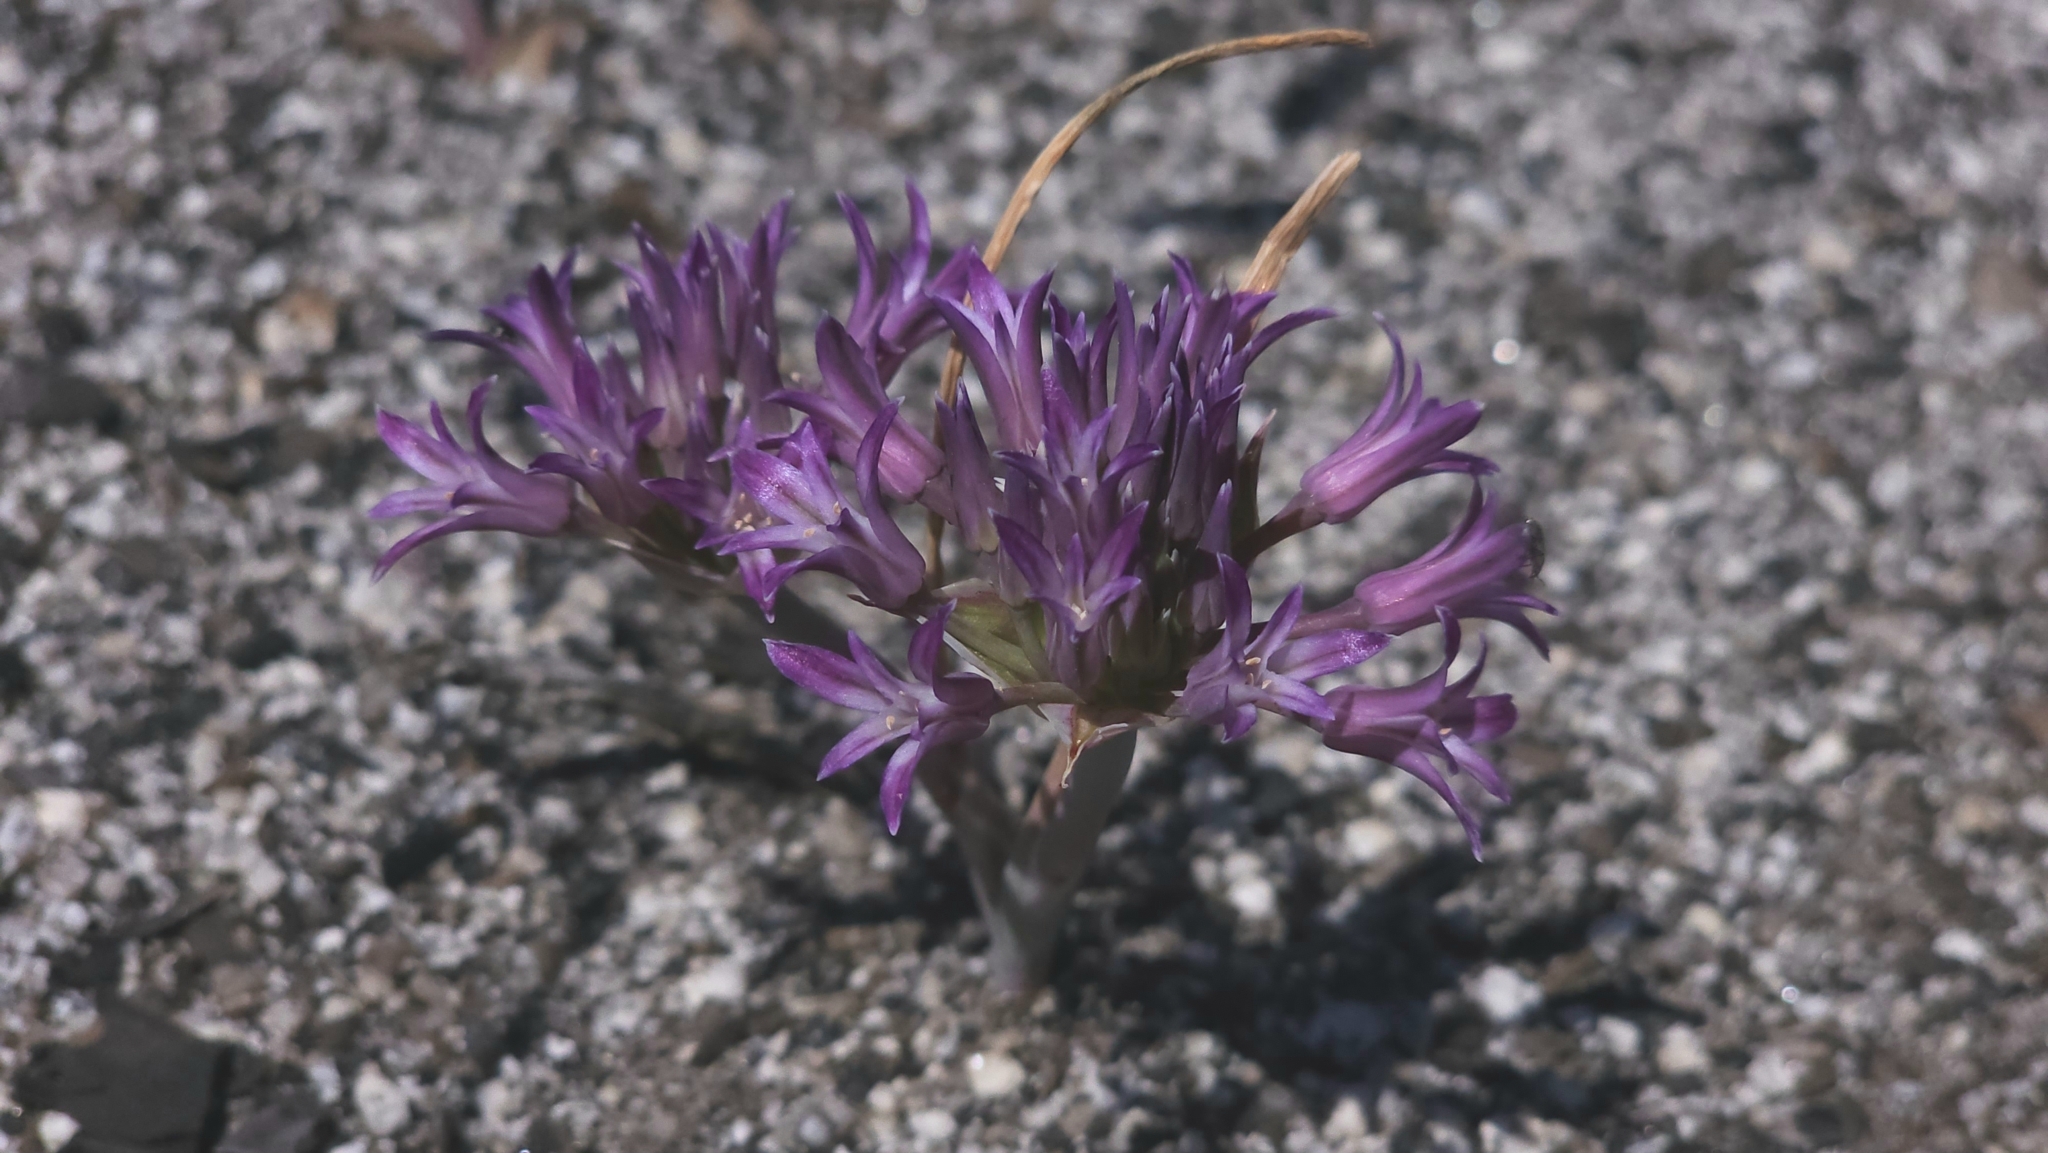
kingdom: Plantae
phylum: Tracheophyta
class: Liliopsida
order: Asparagales
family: Amaryllidaceae
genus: Allium
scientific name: Allium abramsii
